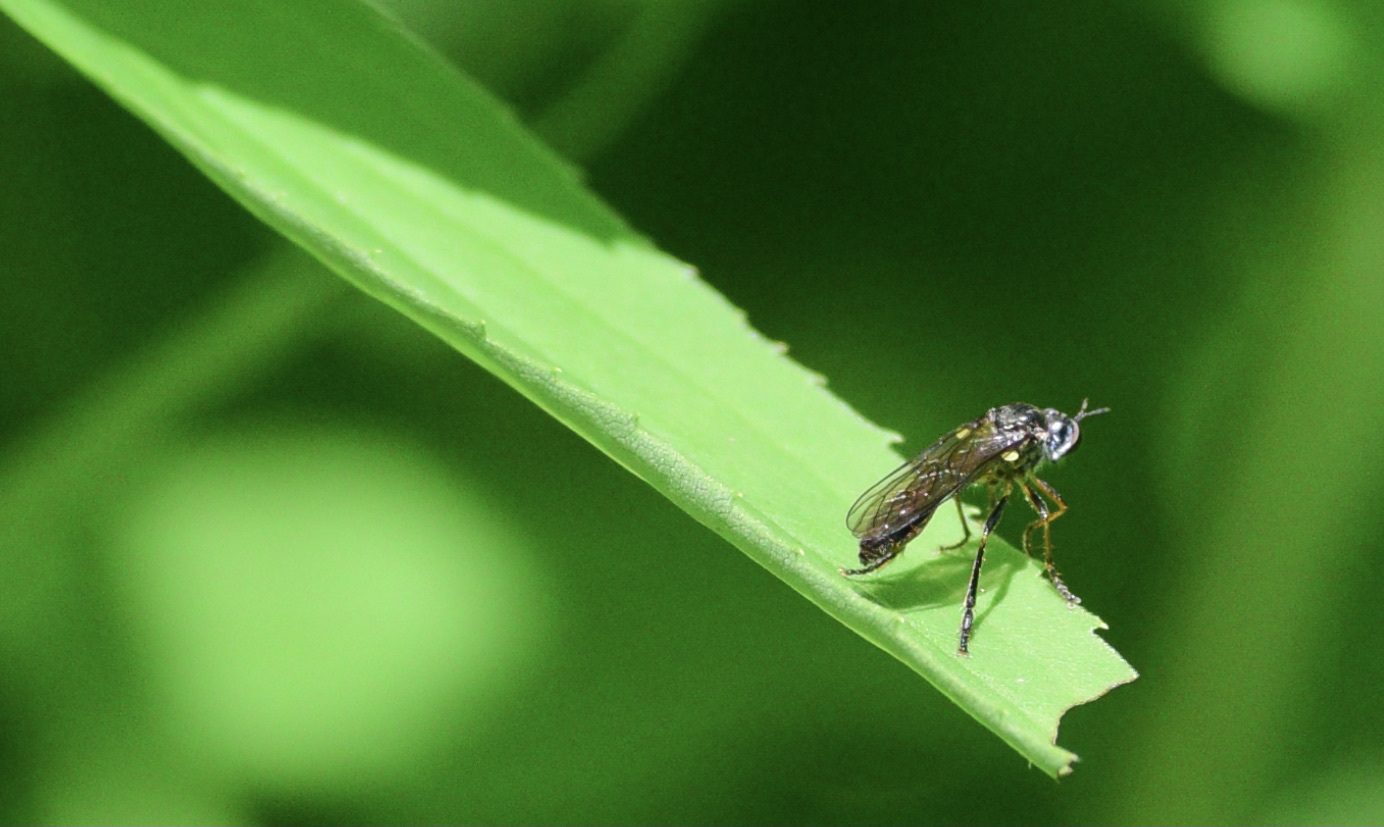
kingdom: Animalia
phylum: Arthropoda
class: Insecta
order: Diptera
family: Asilidae
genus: Dioctria
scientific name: Dioctria hyalipennis
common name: Stripe-legged robberfly
